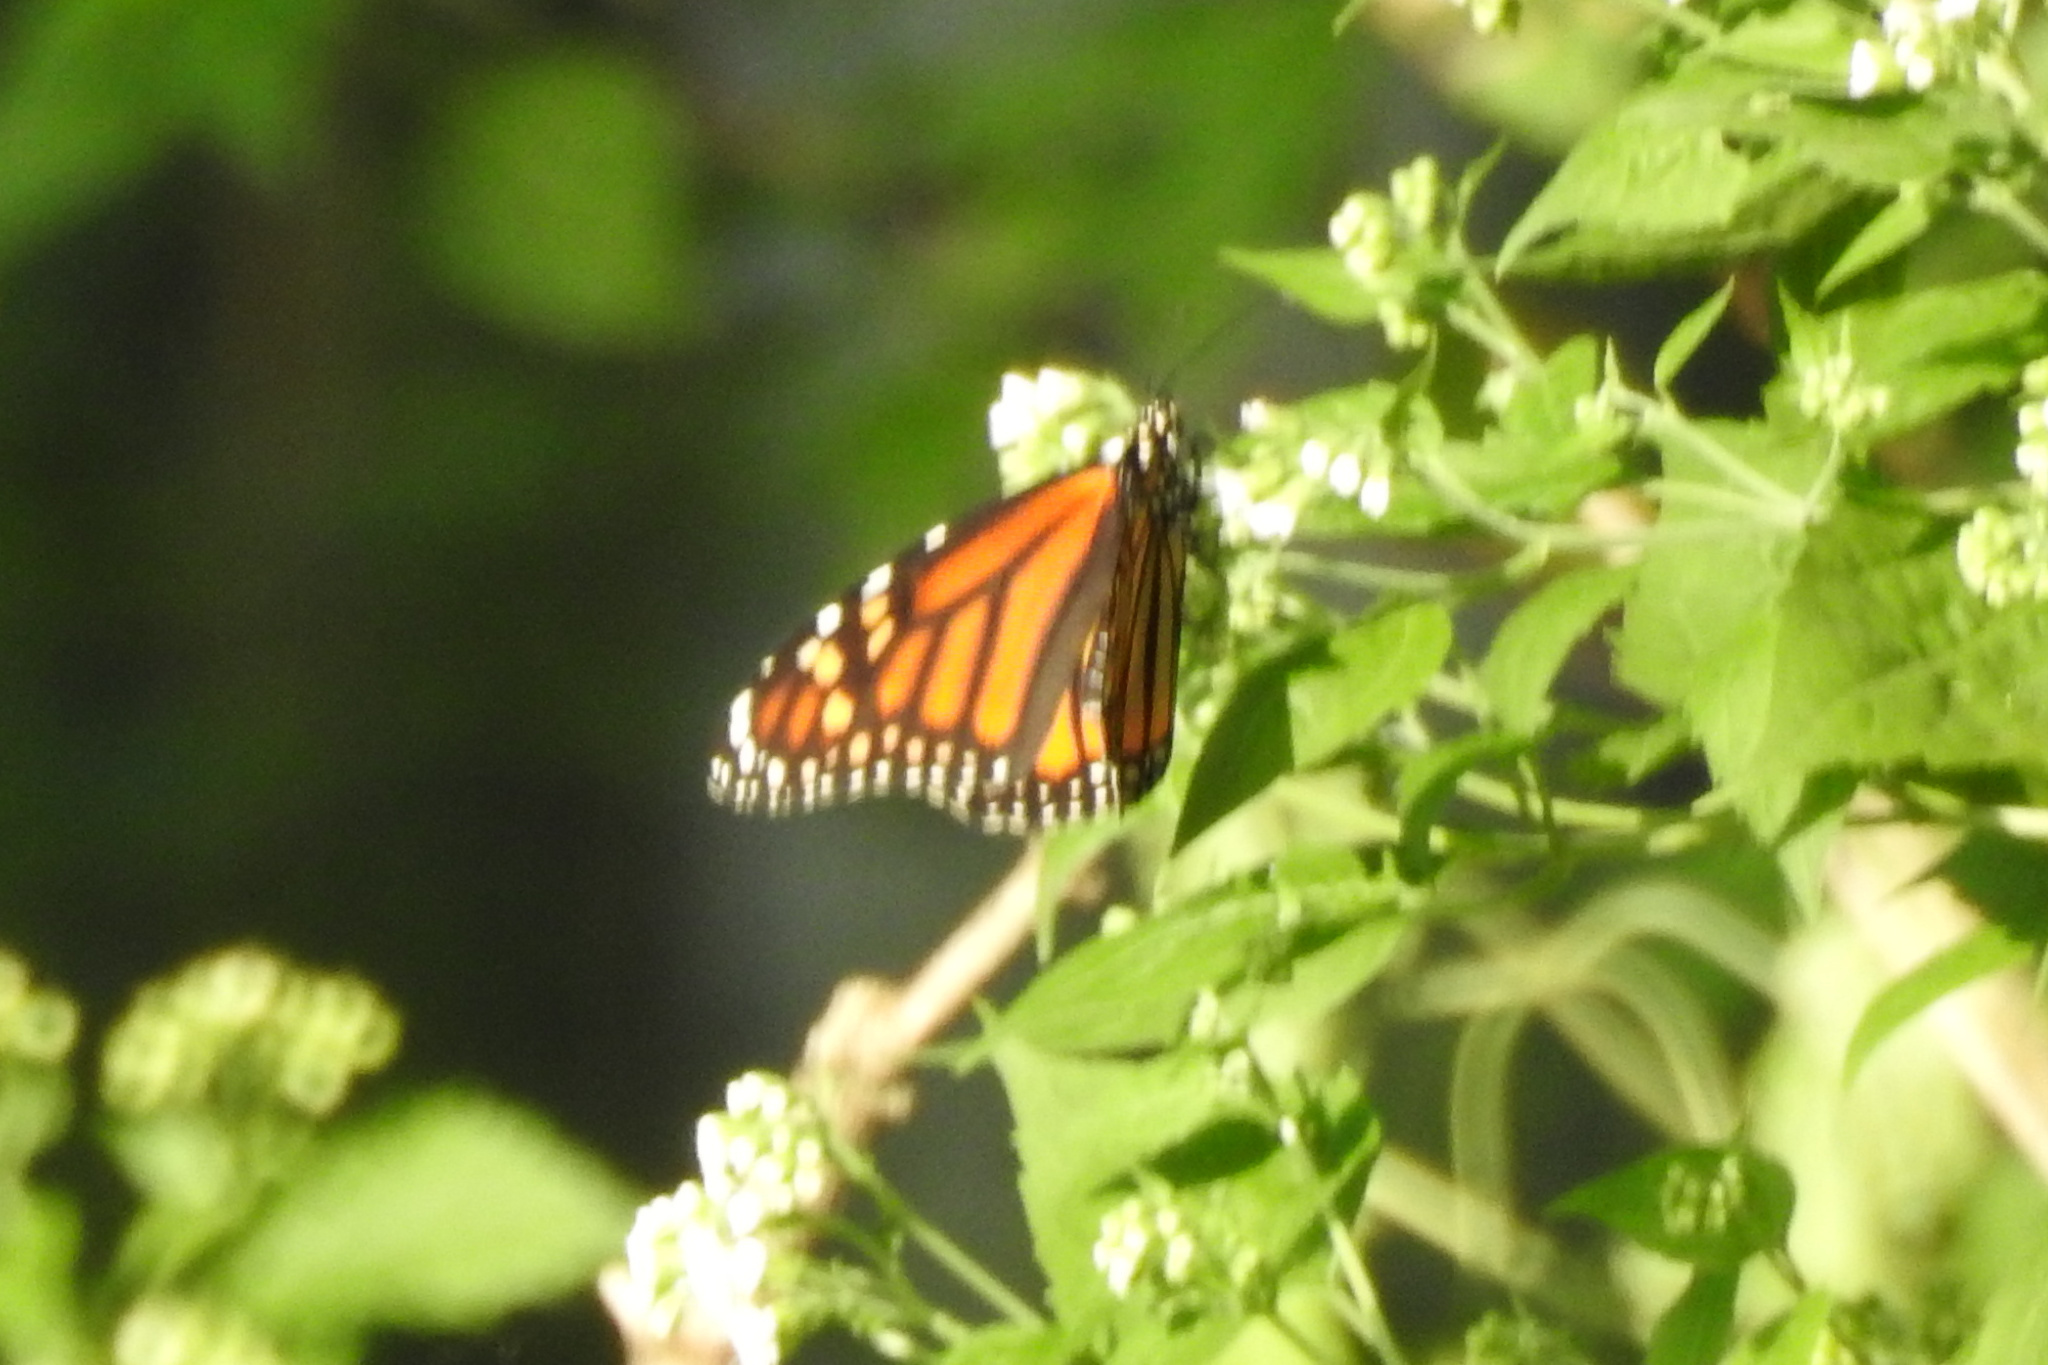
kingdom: Animalia
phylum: Arthropoda
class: Insecta
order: Lepidoptera
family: Nymphalidae
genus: Danaus
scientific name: Danaus plexippus
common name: Monarch
